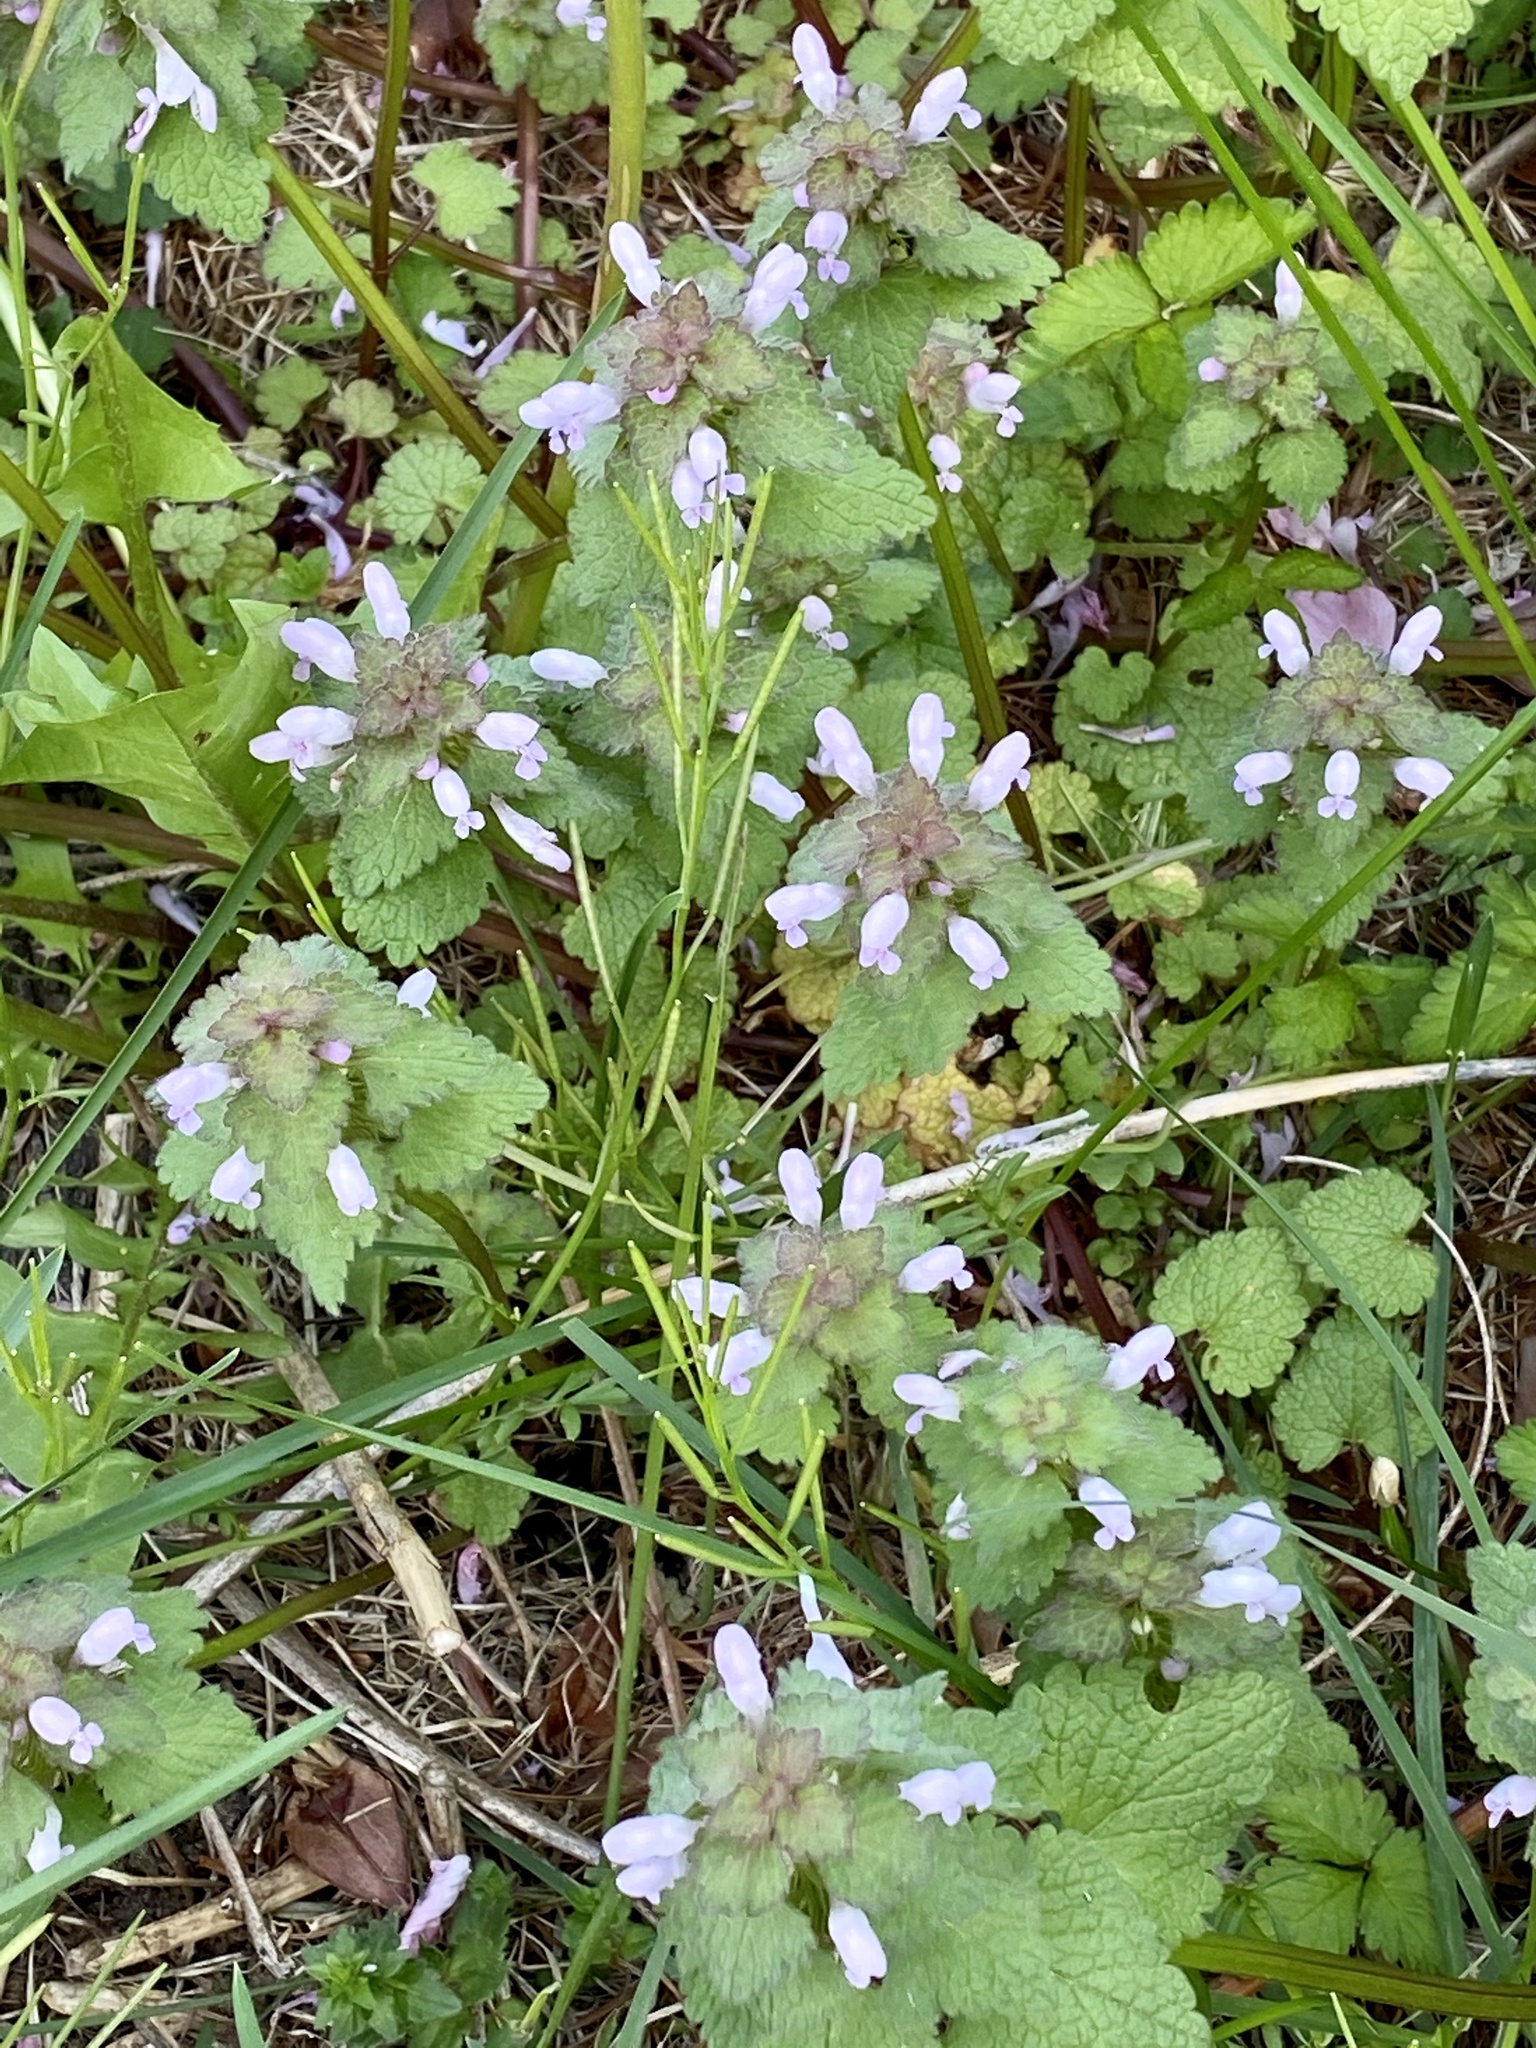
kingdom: Plantae
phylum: Tracheophyta
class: Magnoliopsida
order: Lamiales
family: Lamiaceae
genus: Lamium
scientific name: Lamium purpureum
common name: Red dead-nettle
